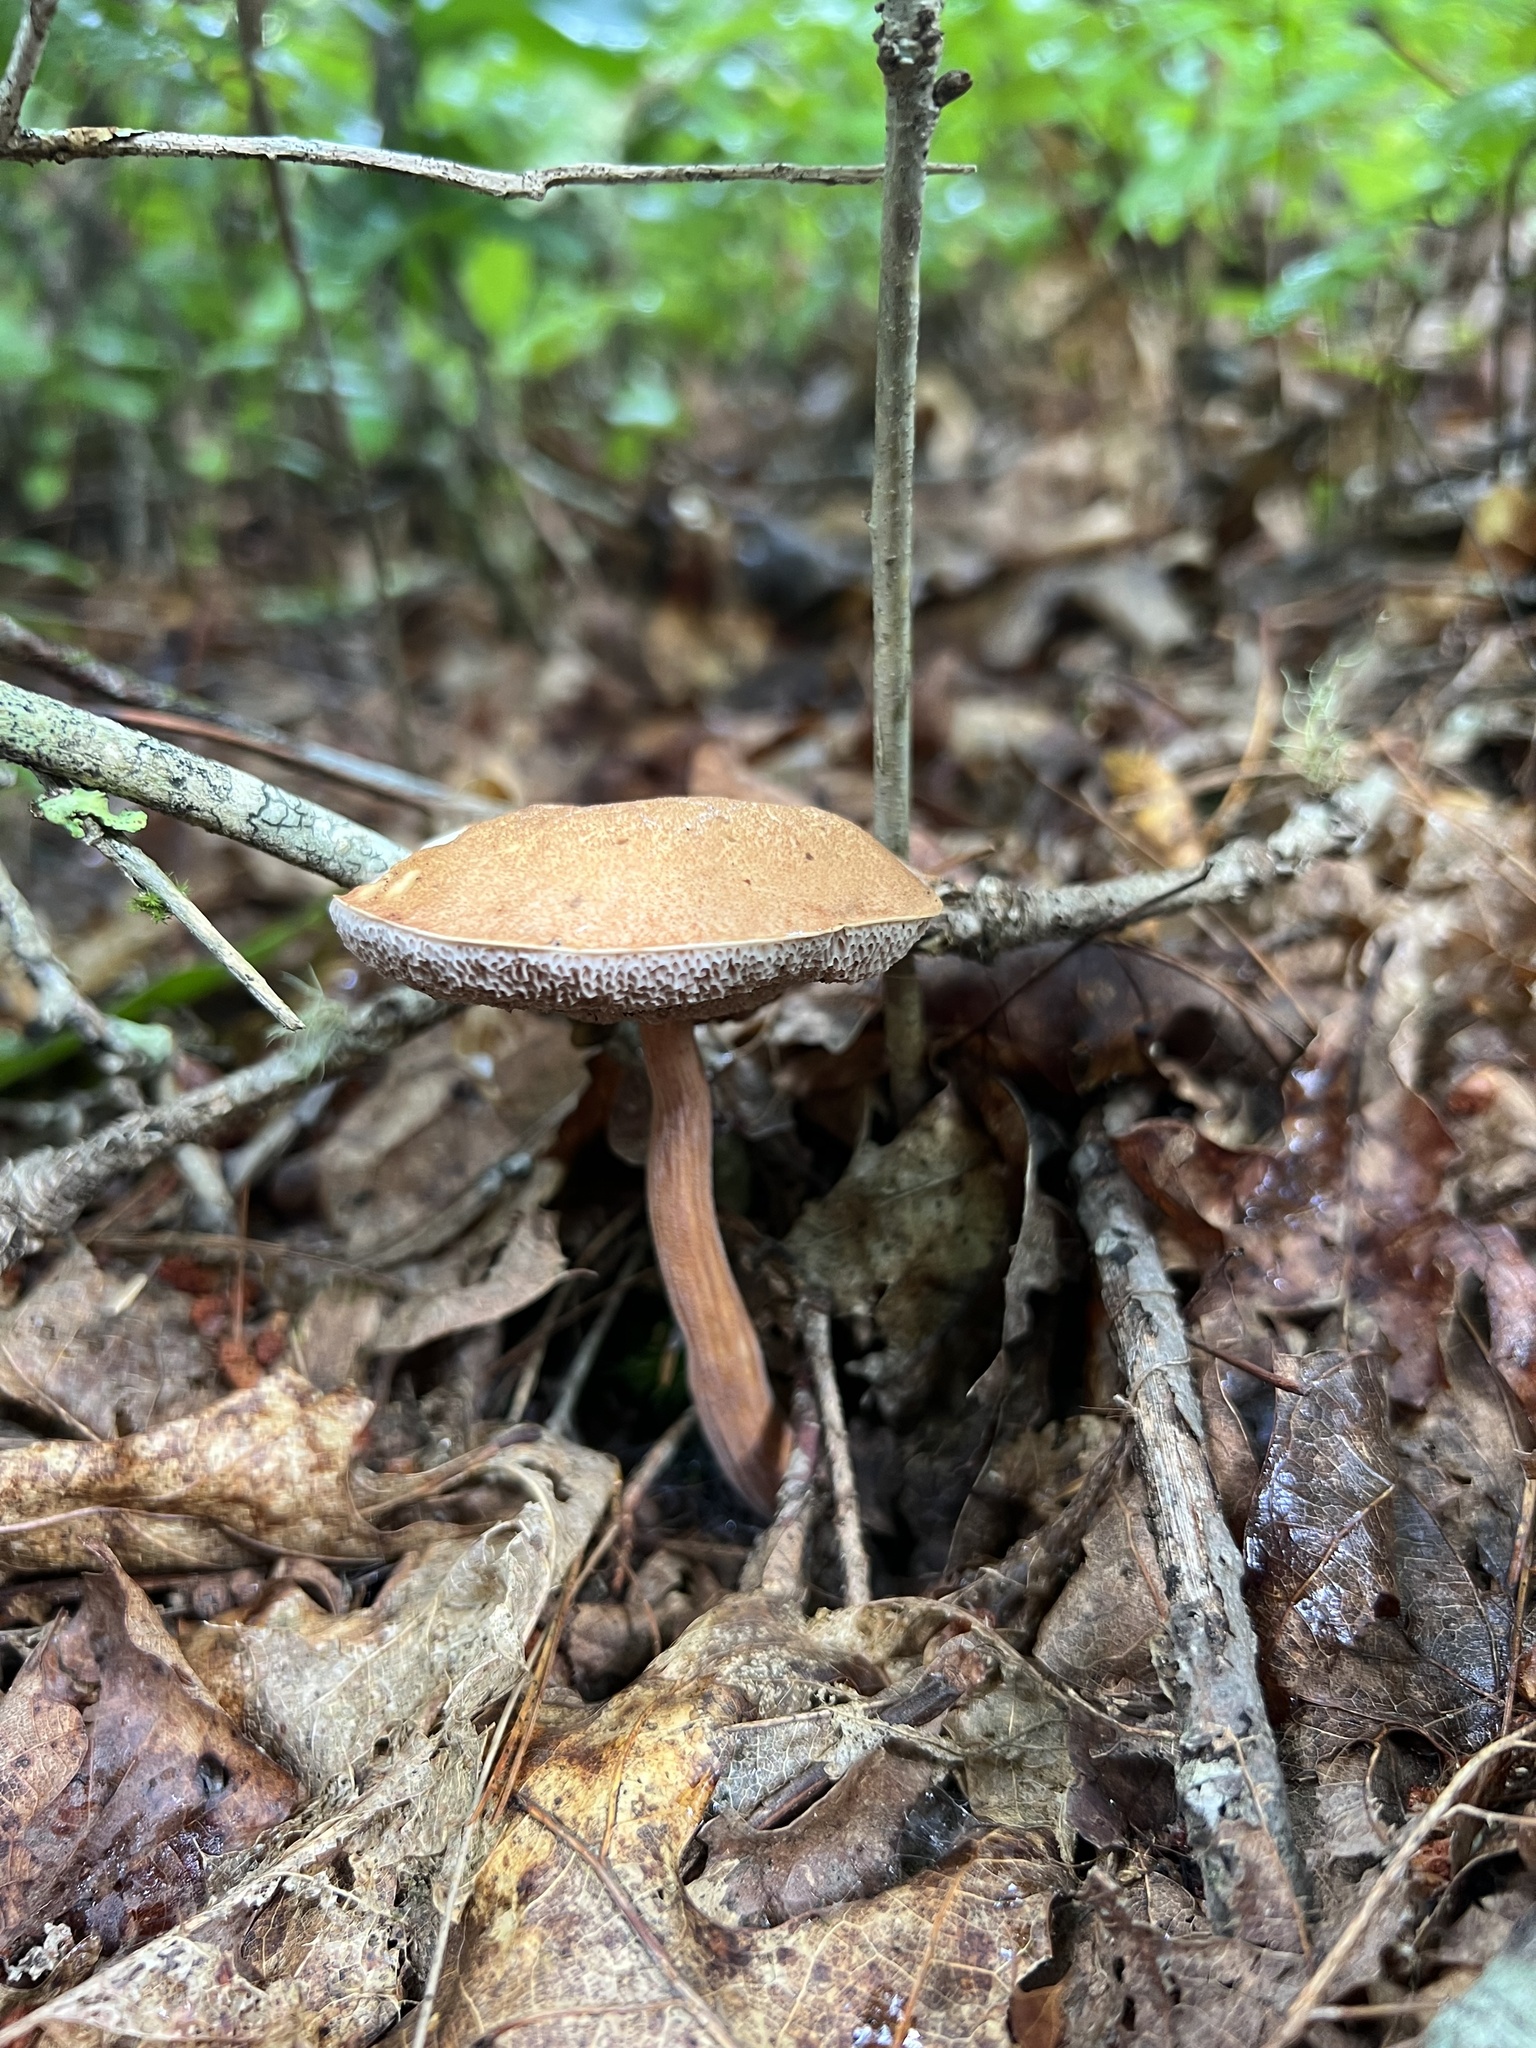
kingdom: Fungi
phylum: Basidiomycota
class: Agaricomycetes
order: Boletales
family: Boletaceae
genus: Austroboletus
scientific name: Austroboletus gracilis
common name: Graceful bolete
